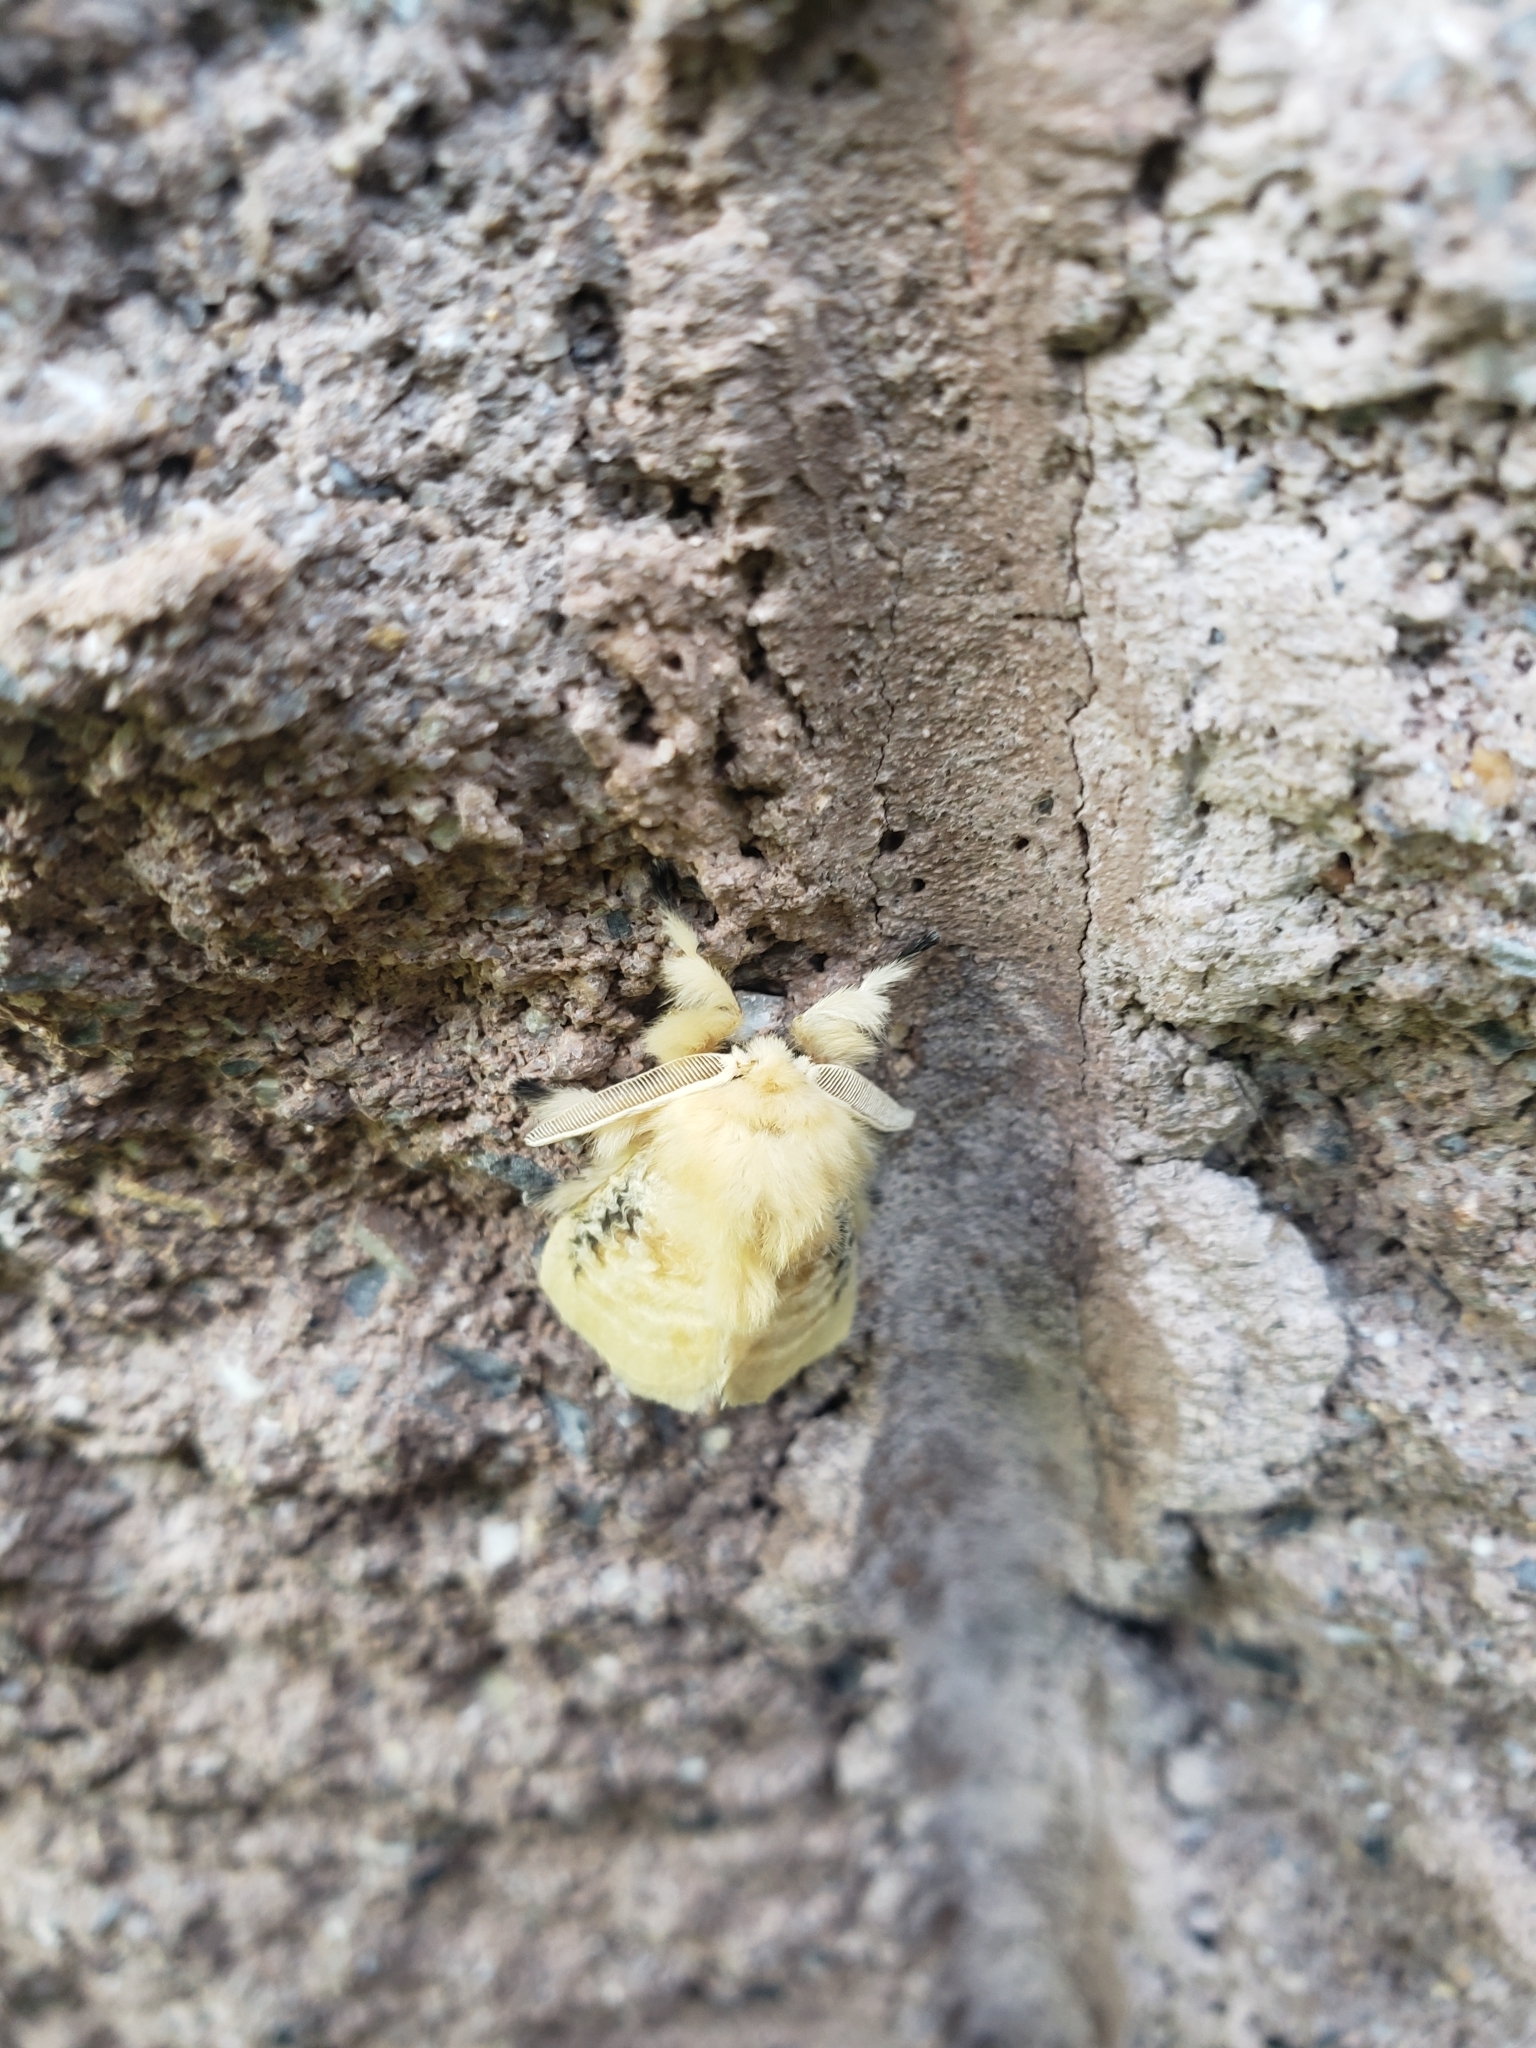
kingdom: Animalia
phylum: Arthropoda
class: Insecta
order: Lepidoptera
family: Megalopygidae
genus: Megalopyge
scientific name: Megalopyge crispata
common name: Black-waved flannel moth
